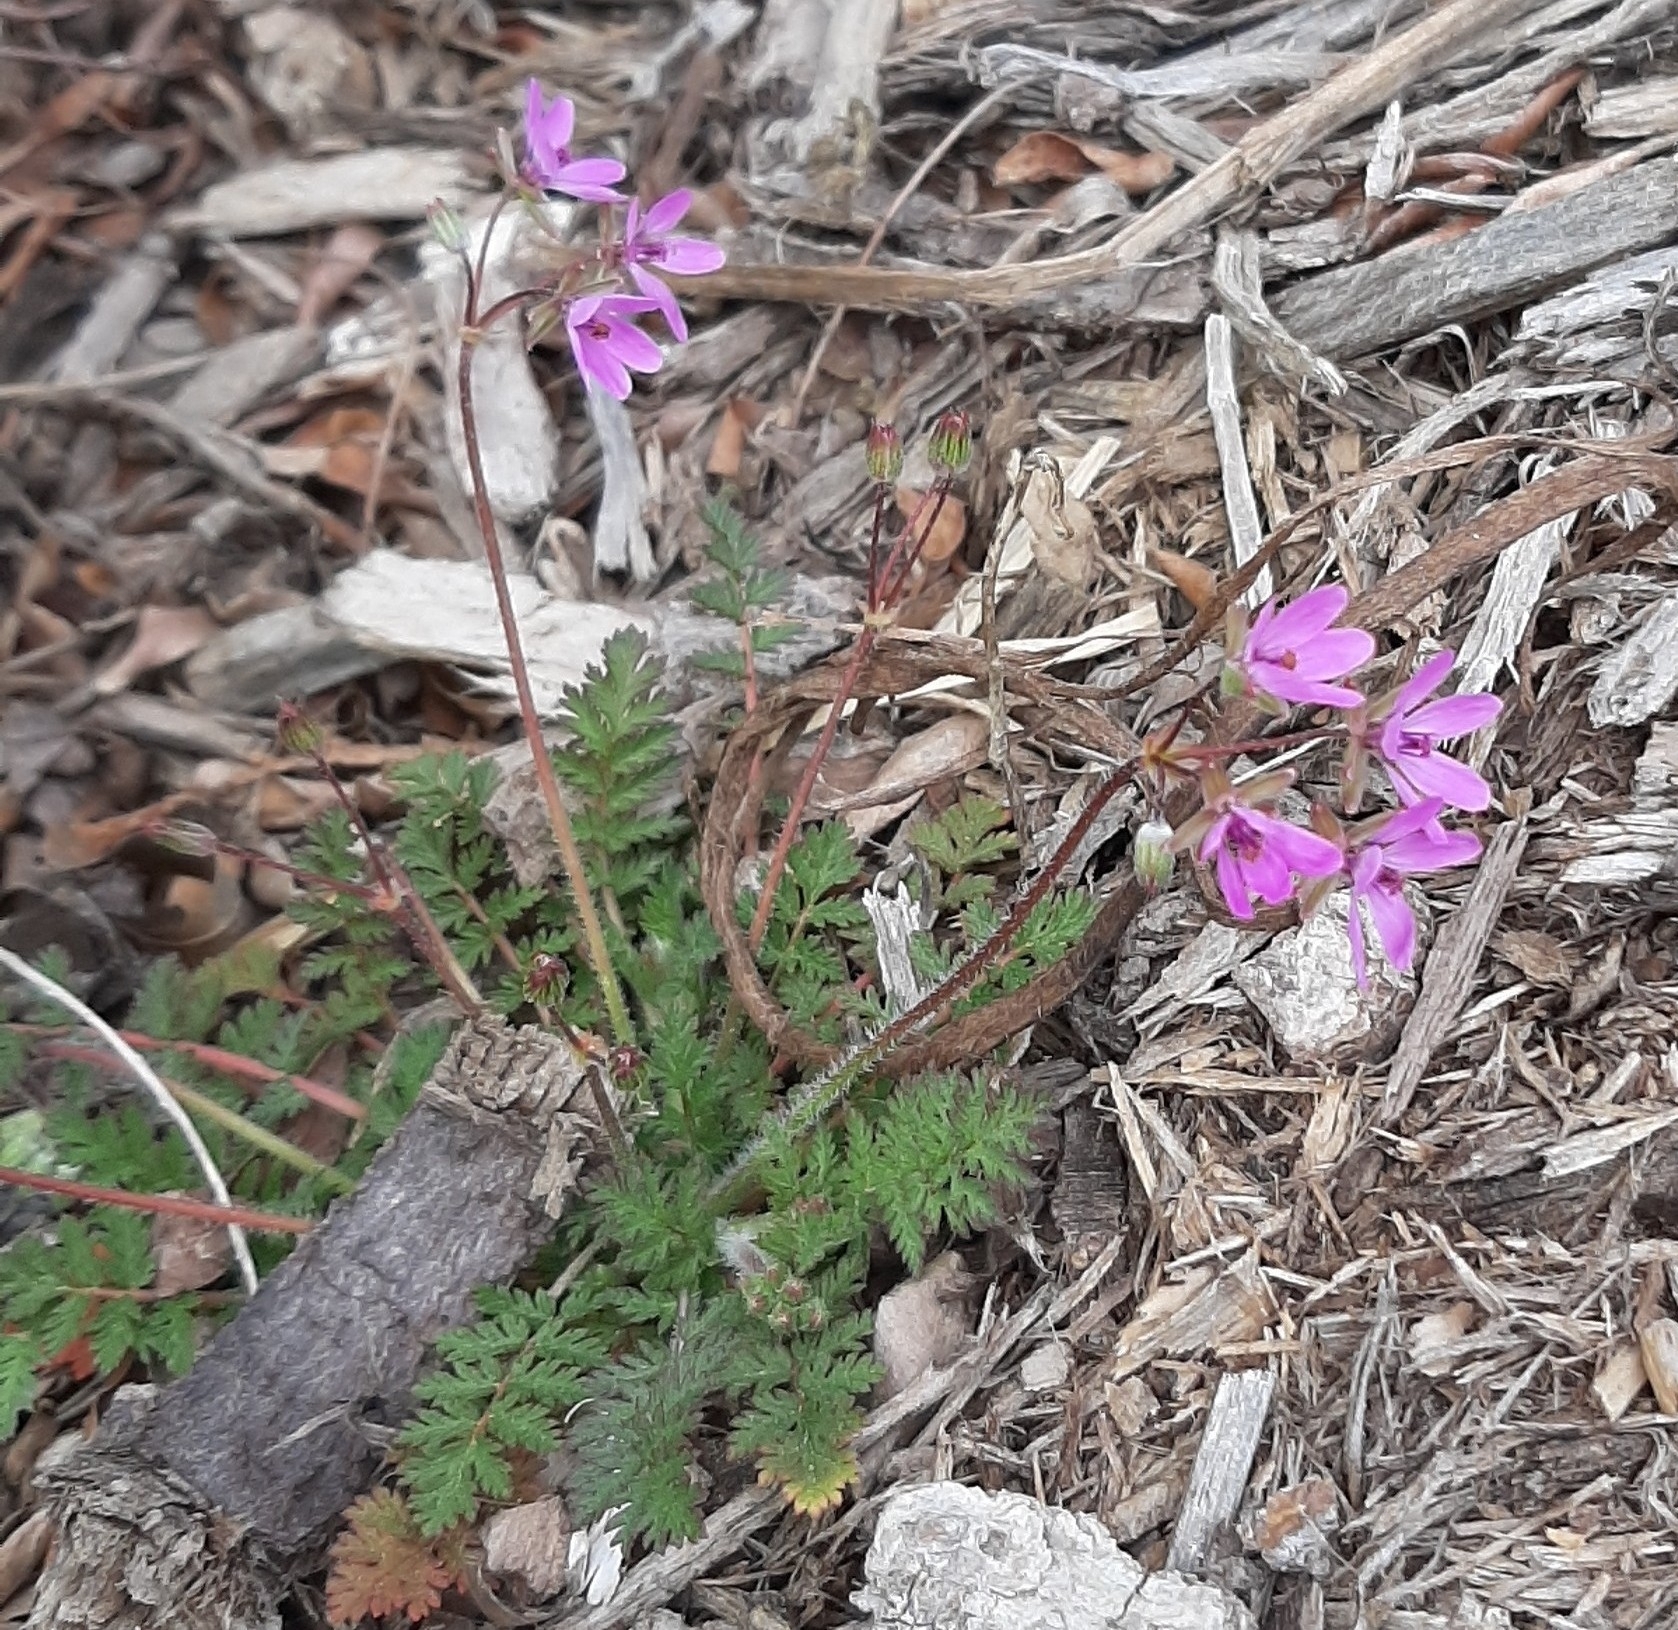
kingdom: Plantae
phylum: Tracheophyta
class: Magnoliopsida
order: Geraniales
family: Geraniaceae
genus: Erodium
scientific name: Erodium cicutarium
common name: Common stork's-bill
